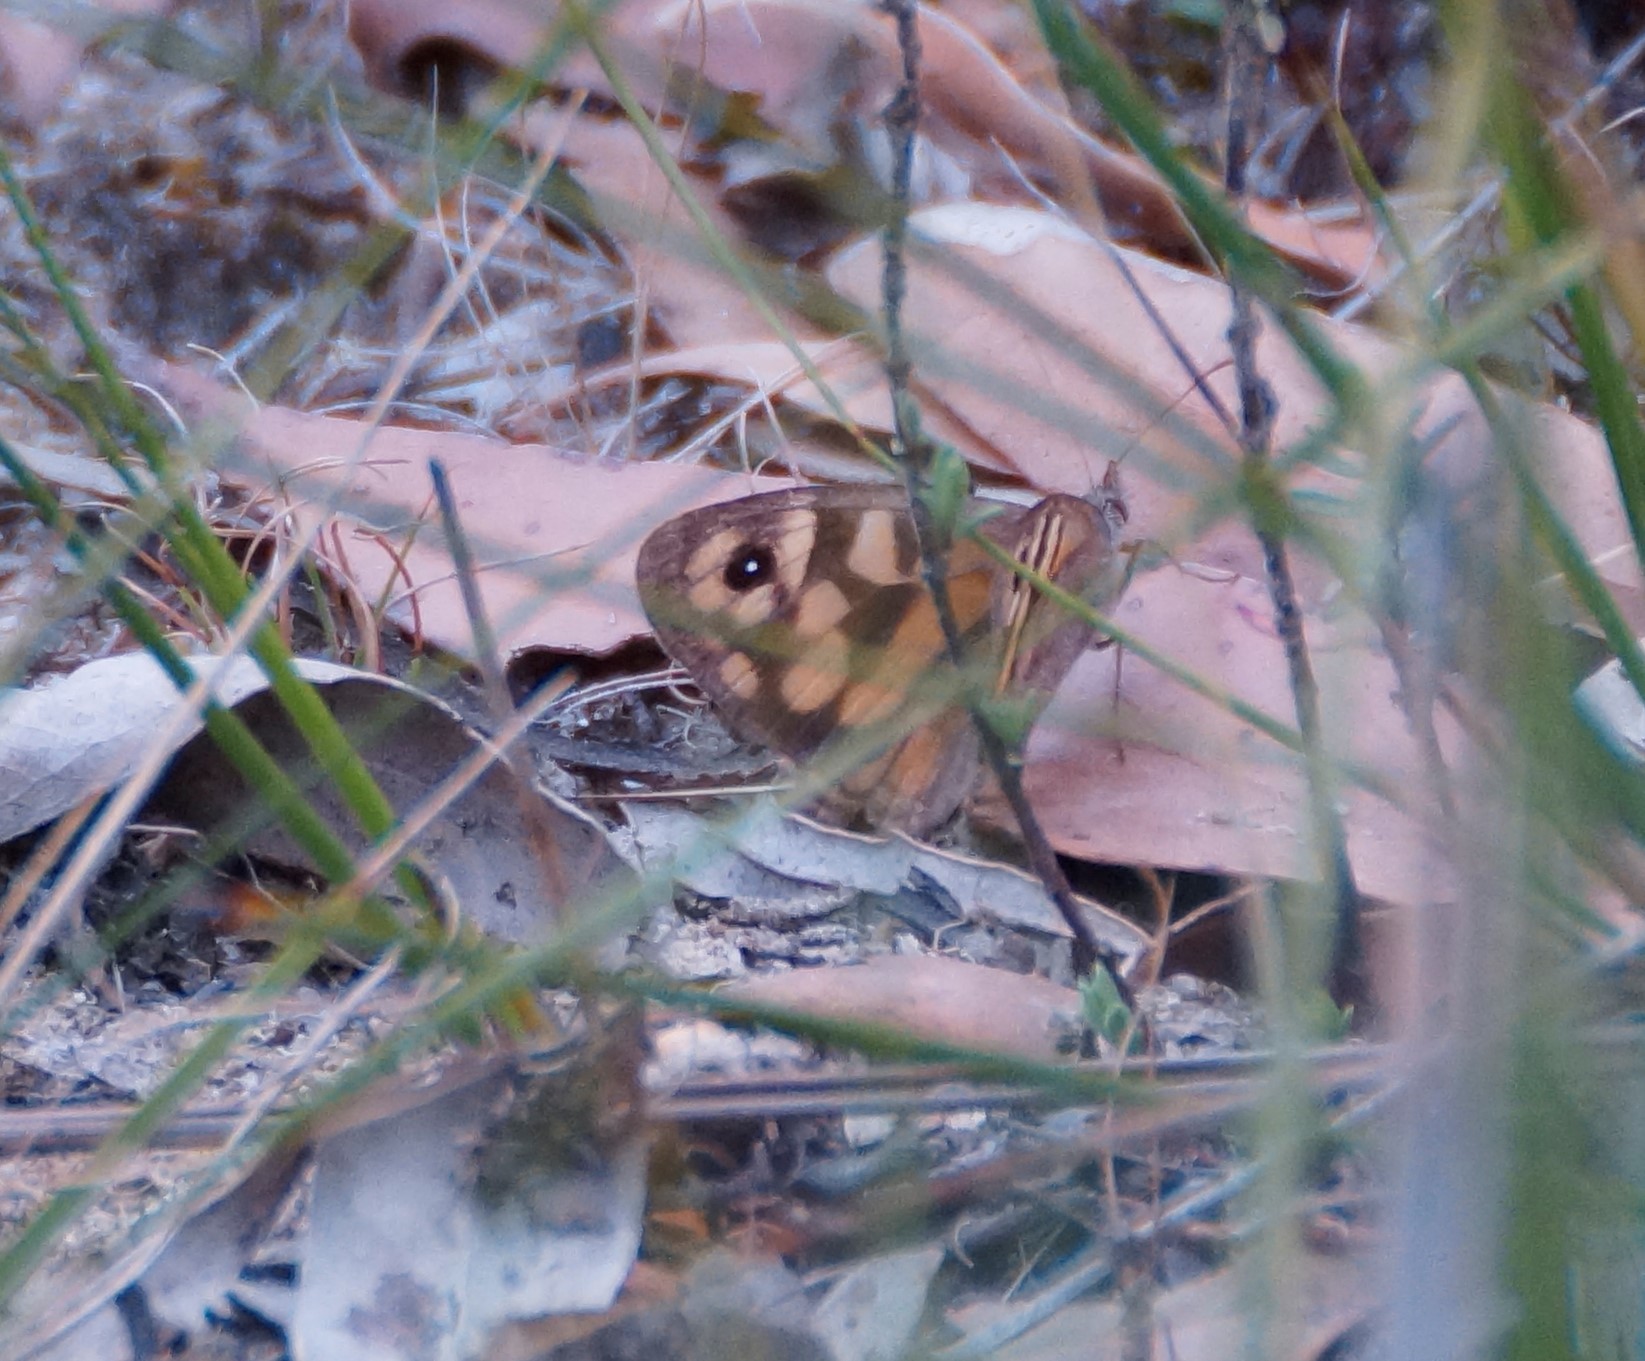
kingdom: Animalia
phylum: Arthropoda
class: Insecta
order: Lepidoptera
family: Nymphalidae
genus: Geitoneura
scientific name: Geitoneura klugii
